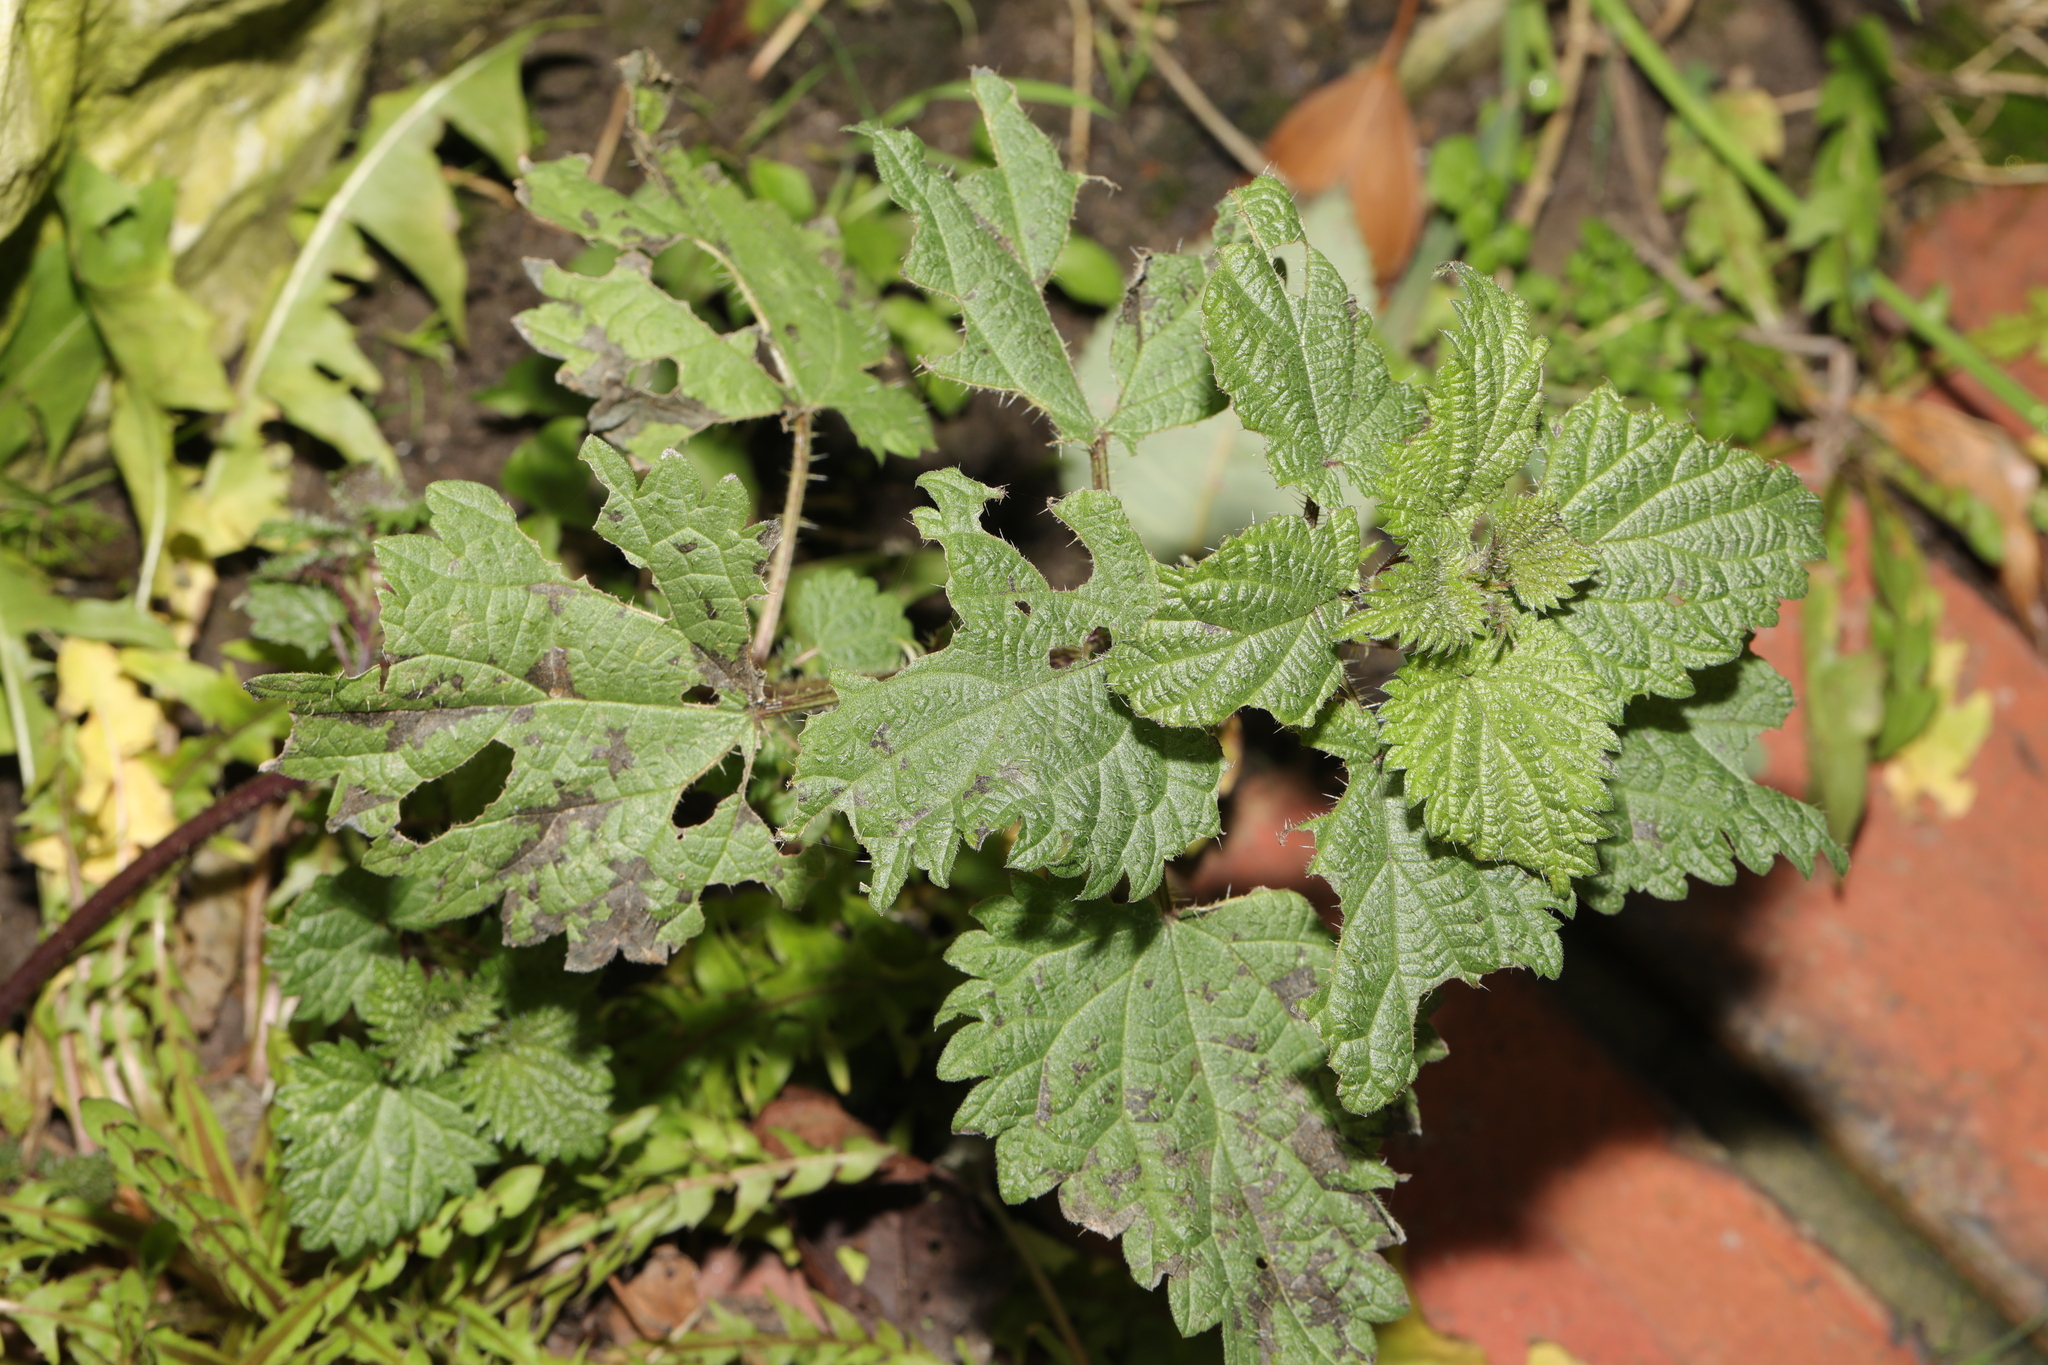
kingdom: Plantae
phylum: Tracheophyta
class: Magnoliopsida
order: Rosales
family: Urticaceae
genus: Urtica
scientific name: Urtica dioica
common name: Common nettle
